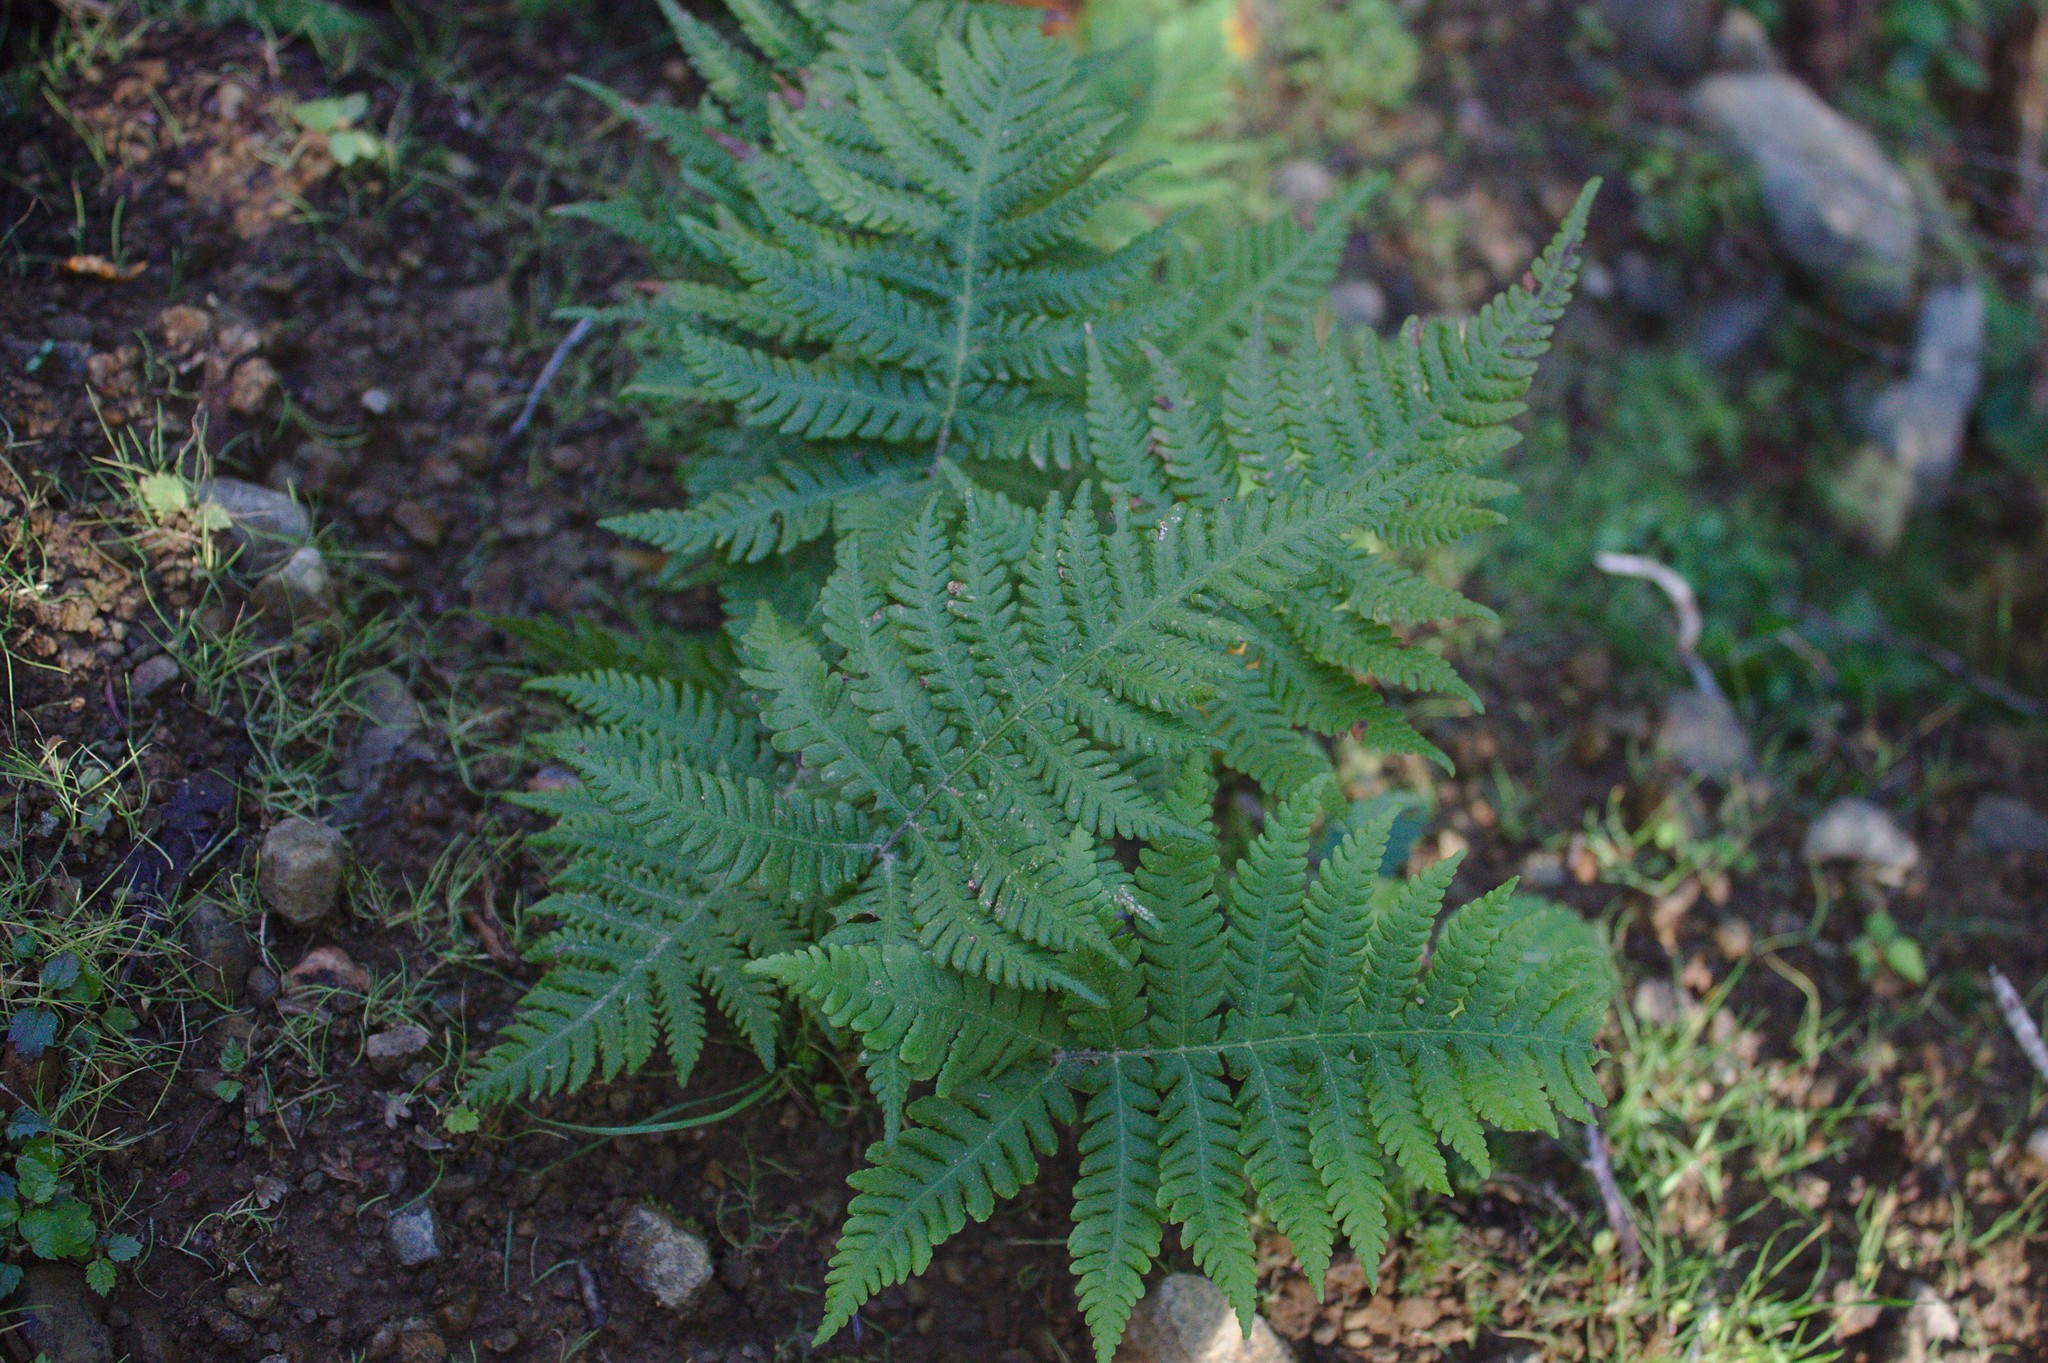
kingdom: Plantae
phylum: Tracheophyta
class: Polypodiopsida
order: Polypodiales
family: Thelypteridaceae
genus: Phegopteris
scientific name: Phegopteris connectilis
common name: Beech fern
